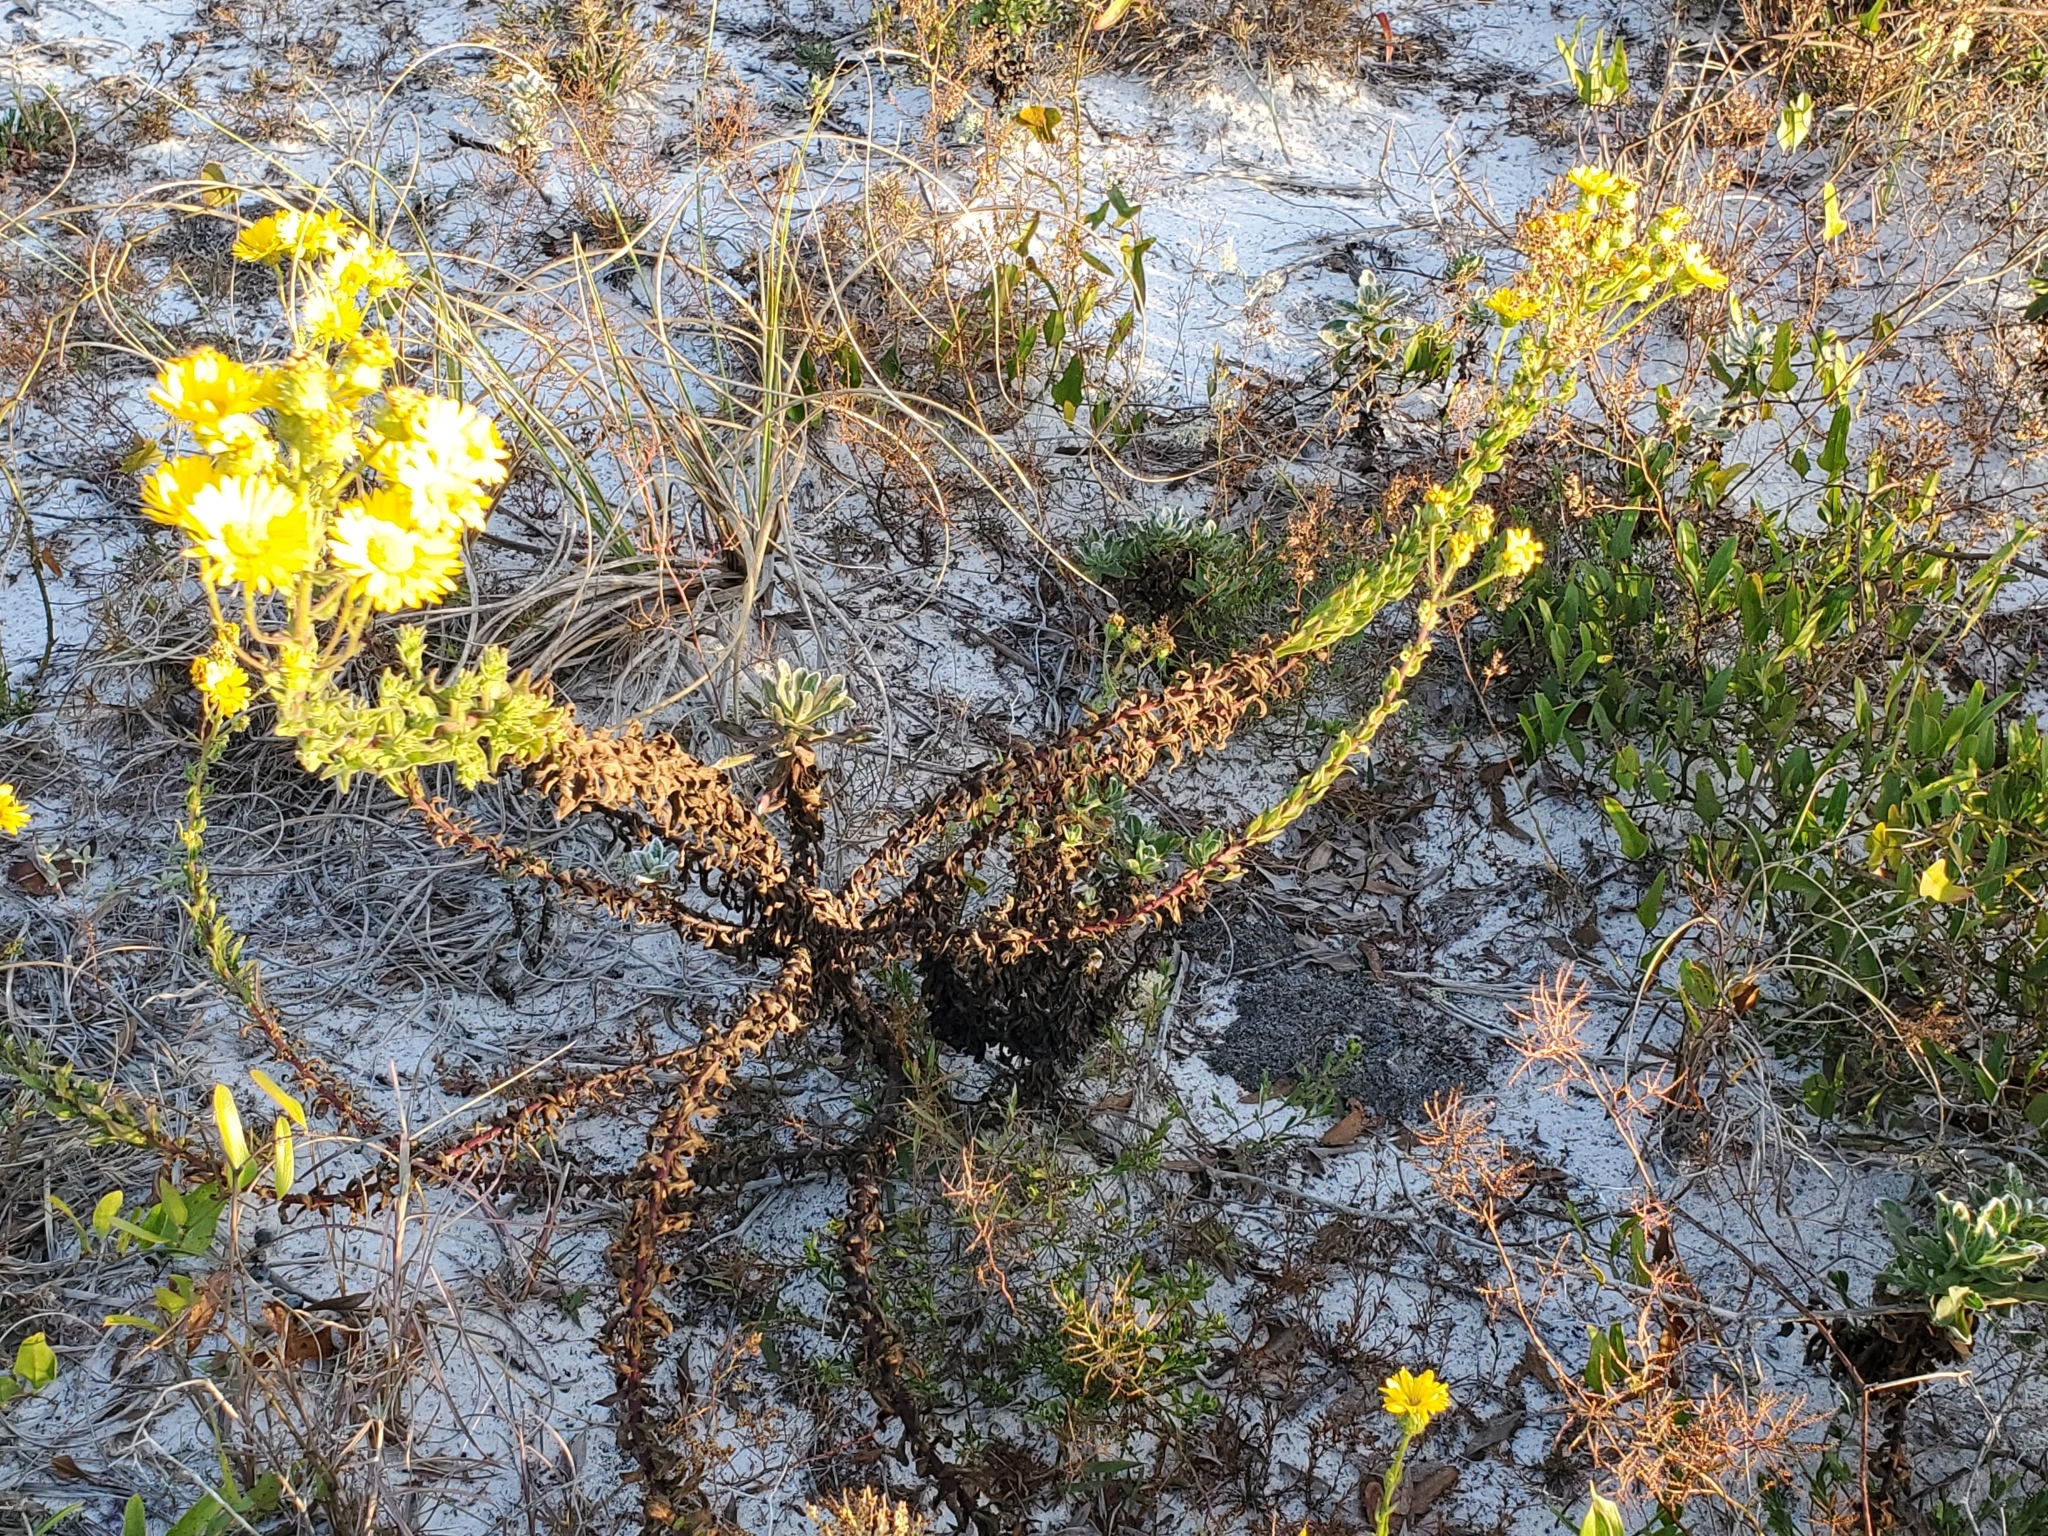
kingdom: Plantae
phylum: Tracheophyta
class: Magnoliopsida
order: Asterales
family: Asteraceae
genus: Chrysopsis
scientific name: Chrysopsis godfreyi
